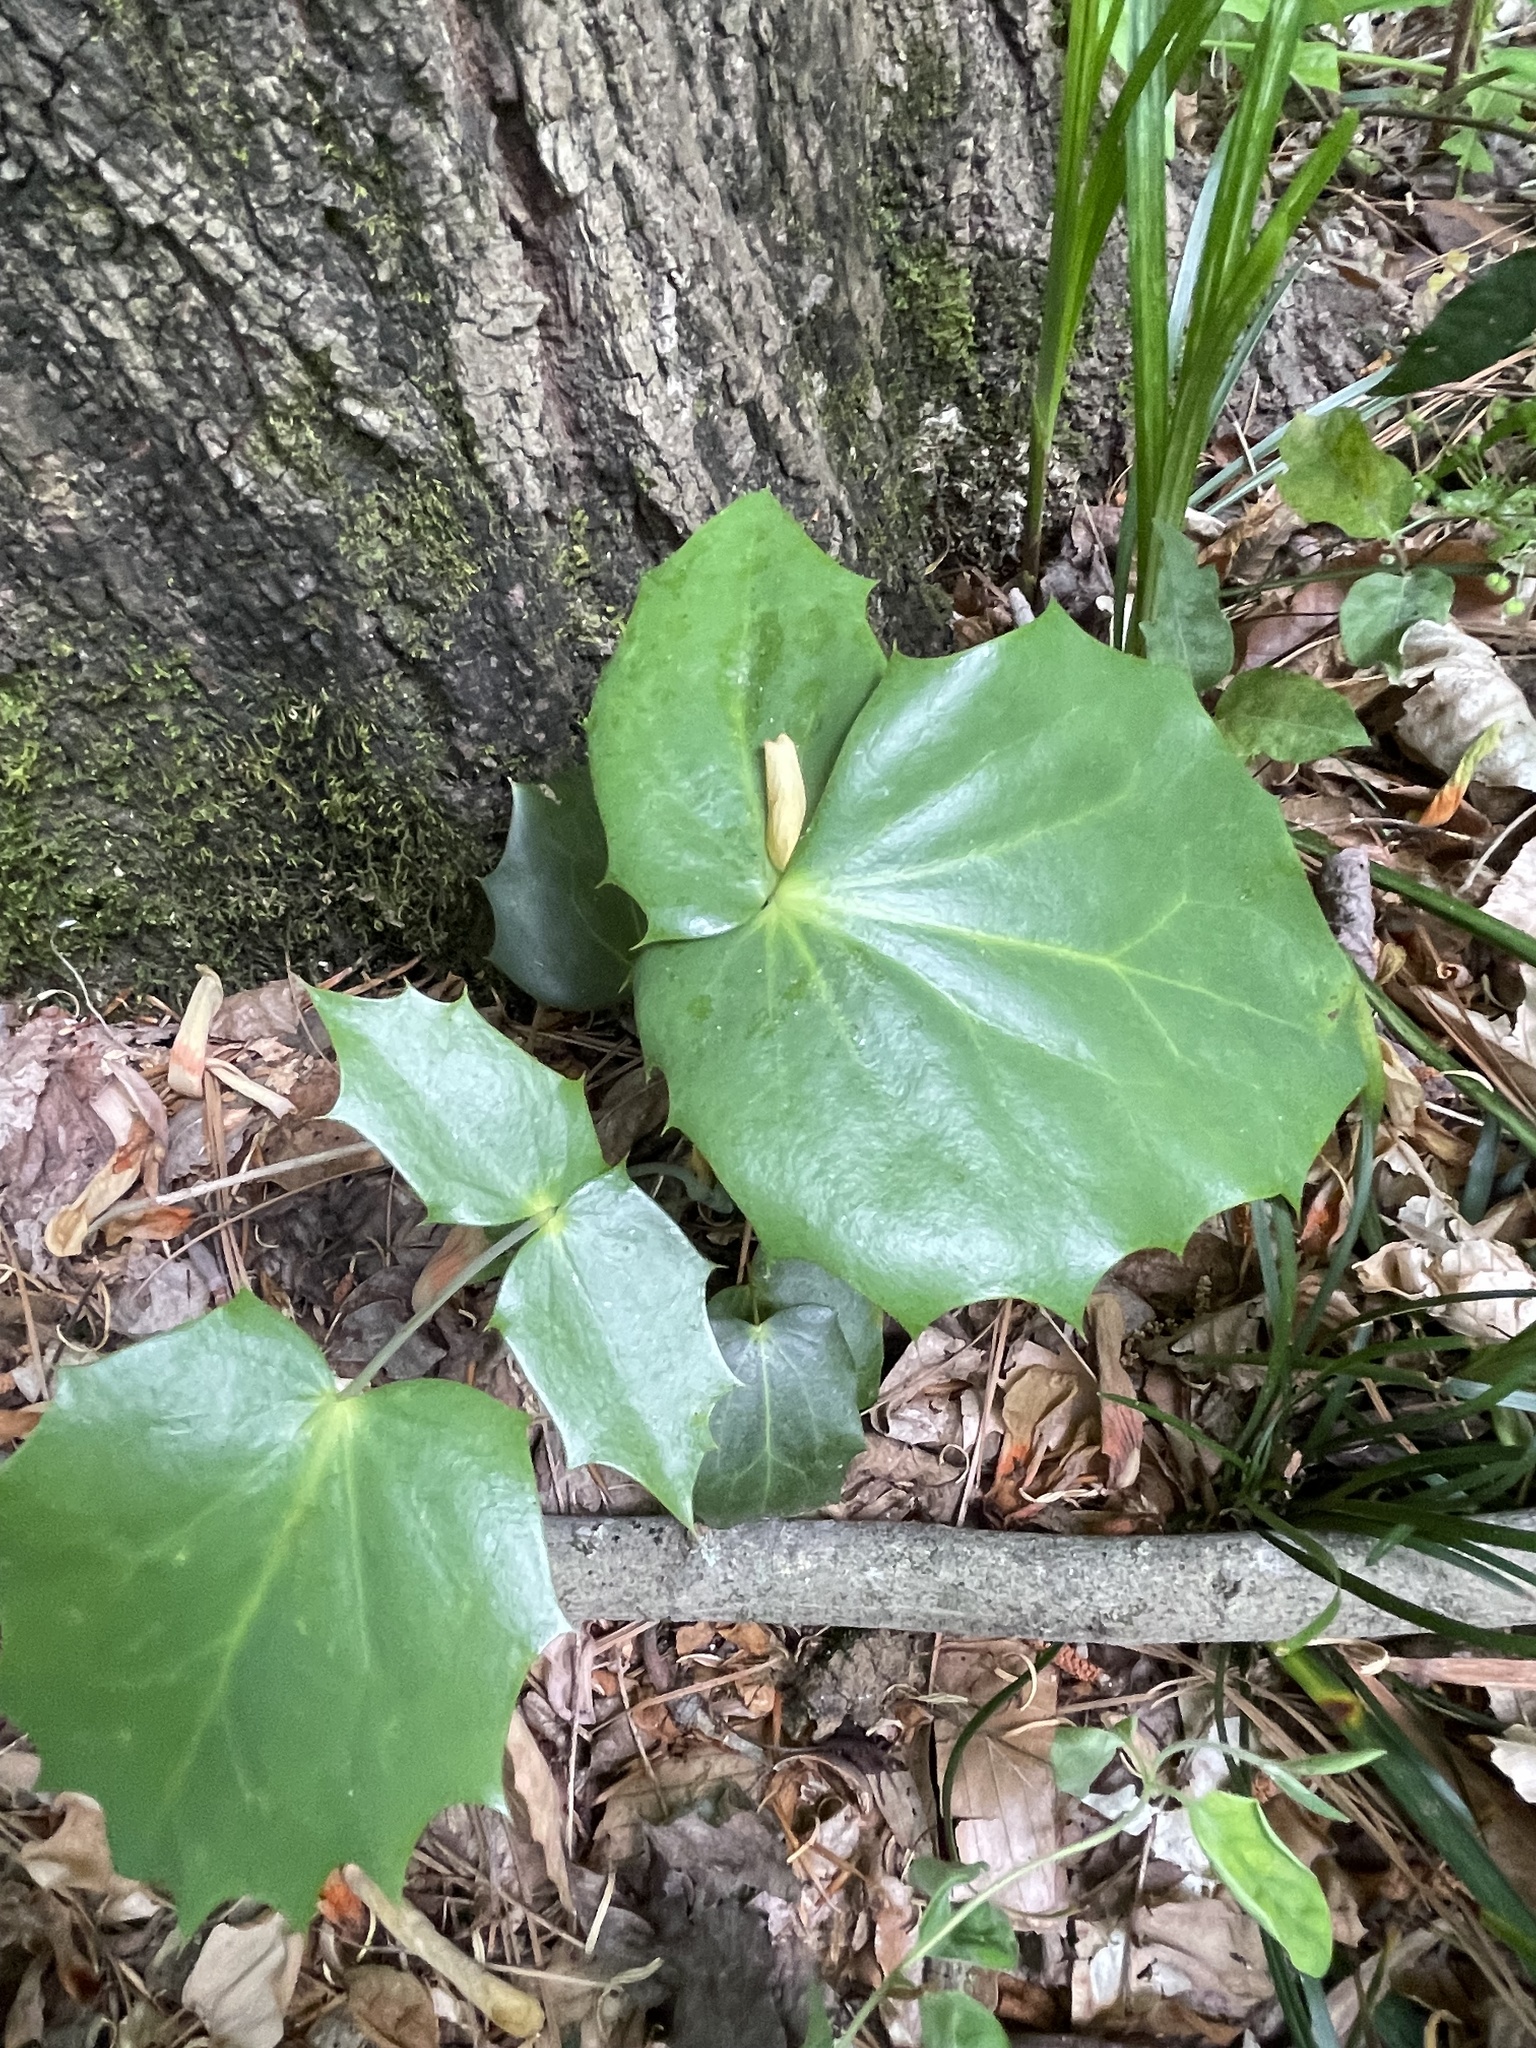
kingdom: Plantae
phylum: Tracheophyta
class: Magnoliopsida
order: Ranunculales
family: Berberidaceae
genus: Mahonia
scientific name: Mahonia bealei
